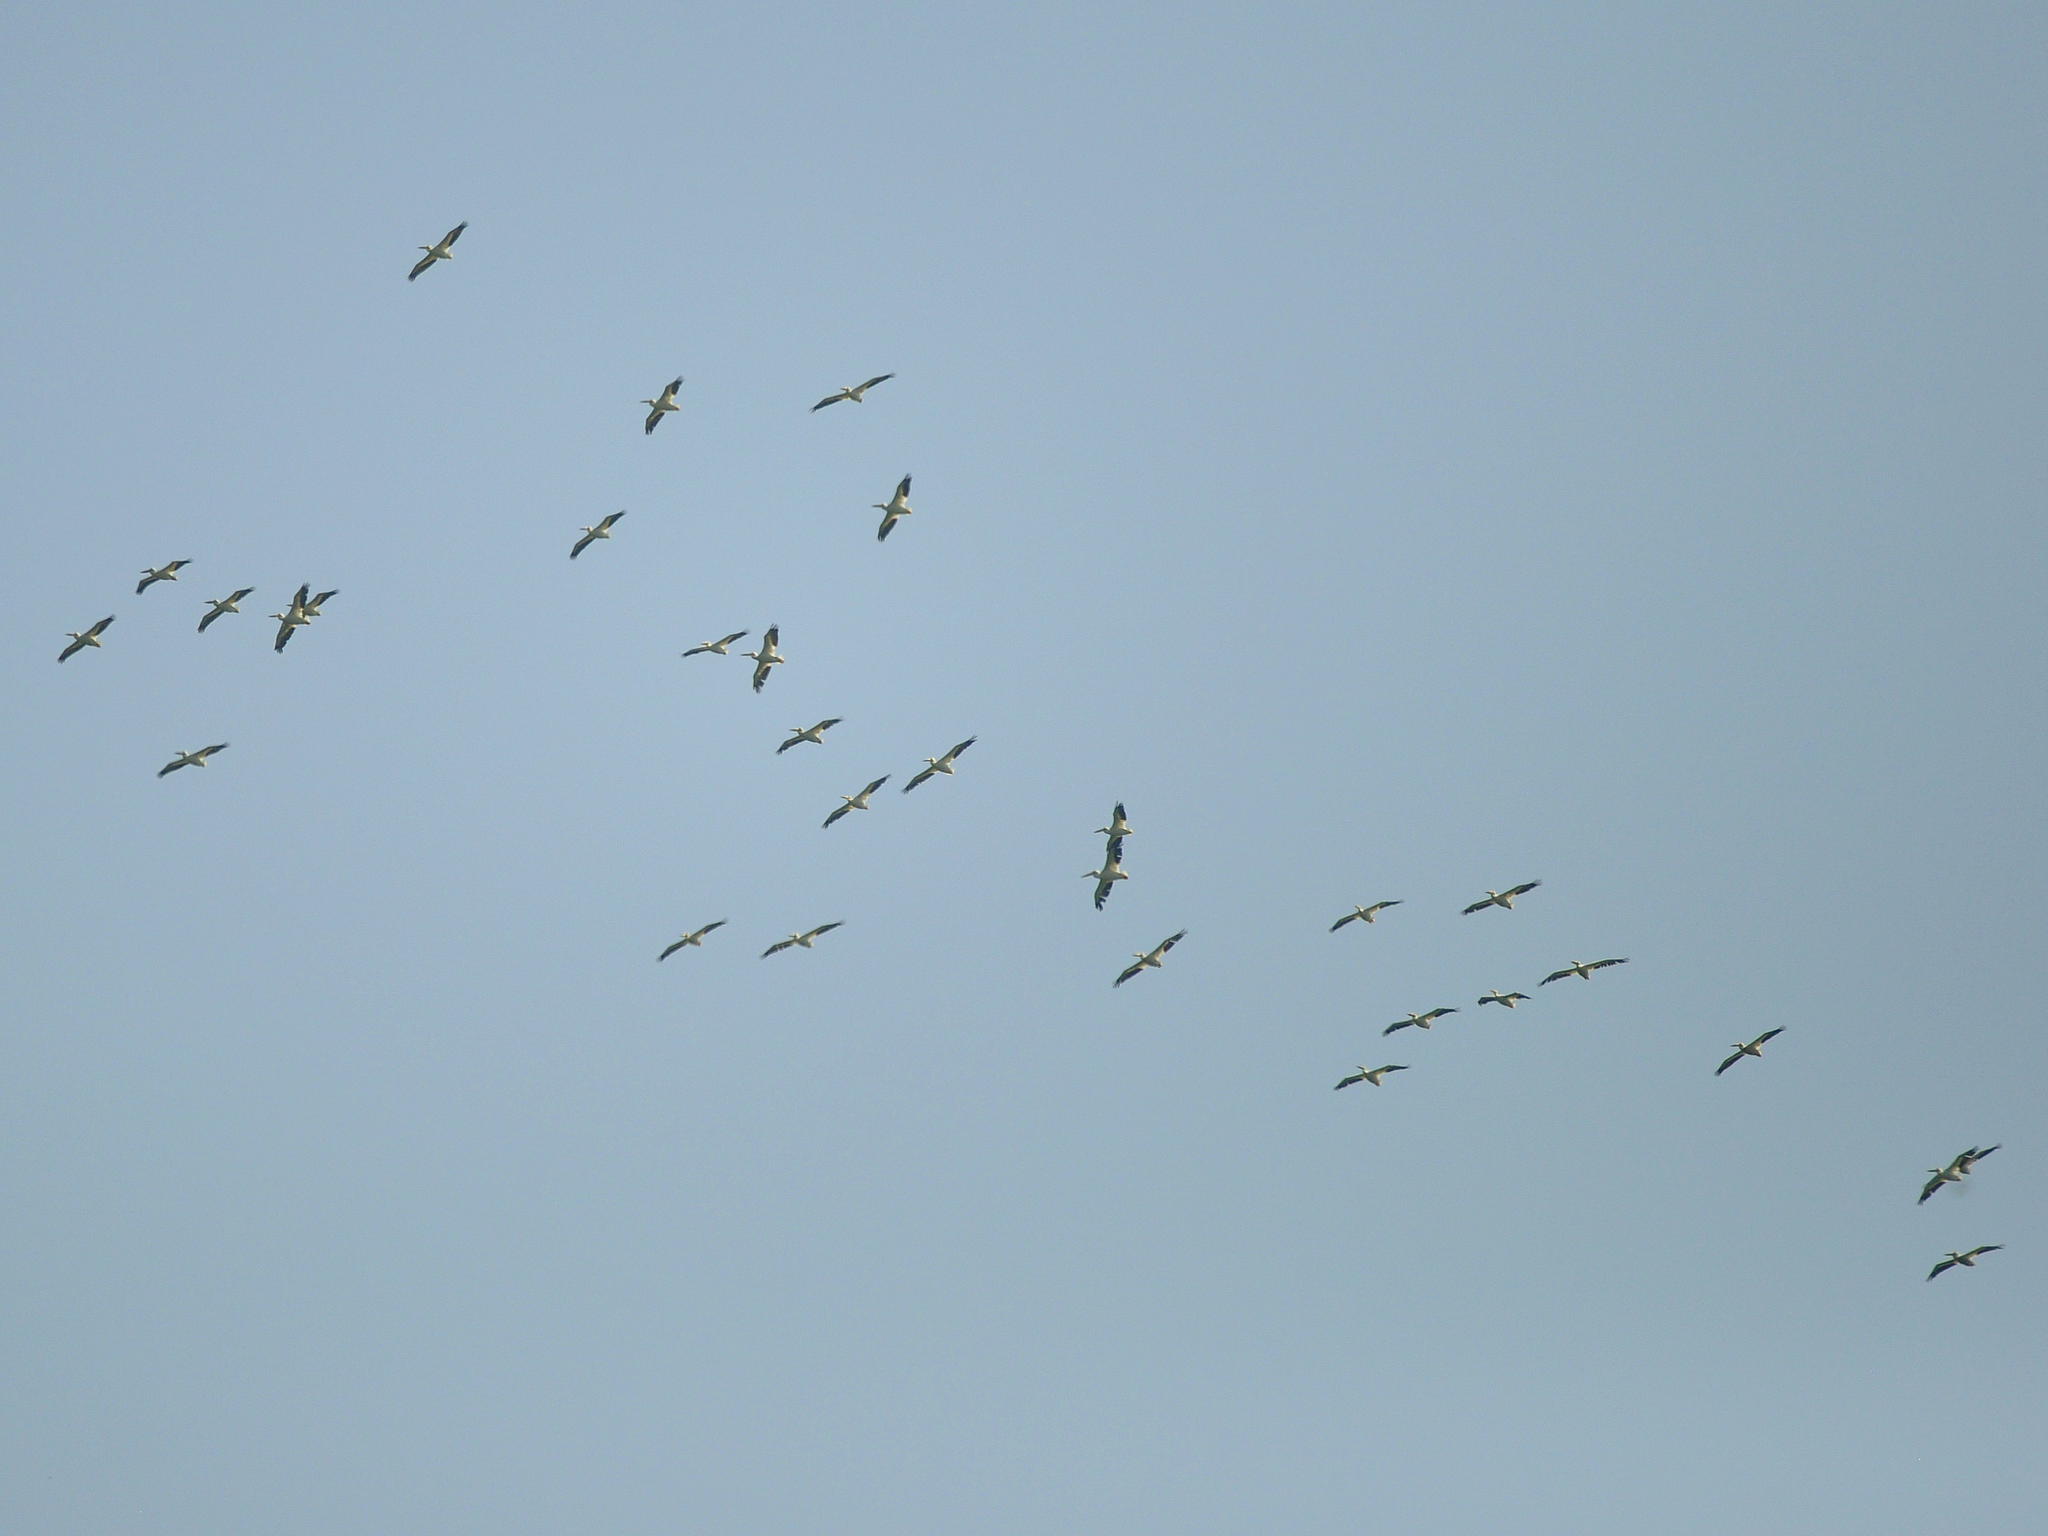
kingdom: Animalia
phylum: Chordata
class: Aves
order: Pelecaniformes
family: Pelecanidae
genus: Pelecanus
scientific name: Pelecanus erythrorhynchos
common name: American white pelican
